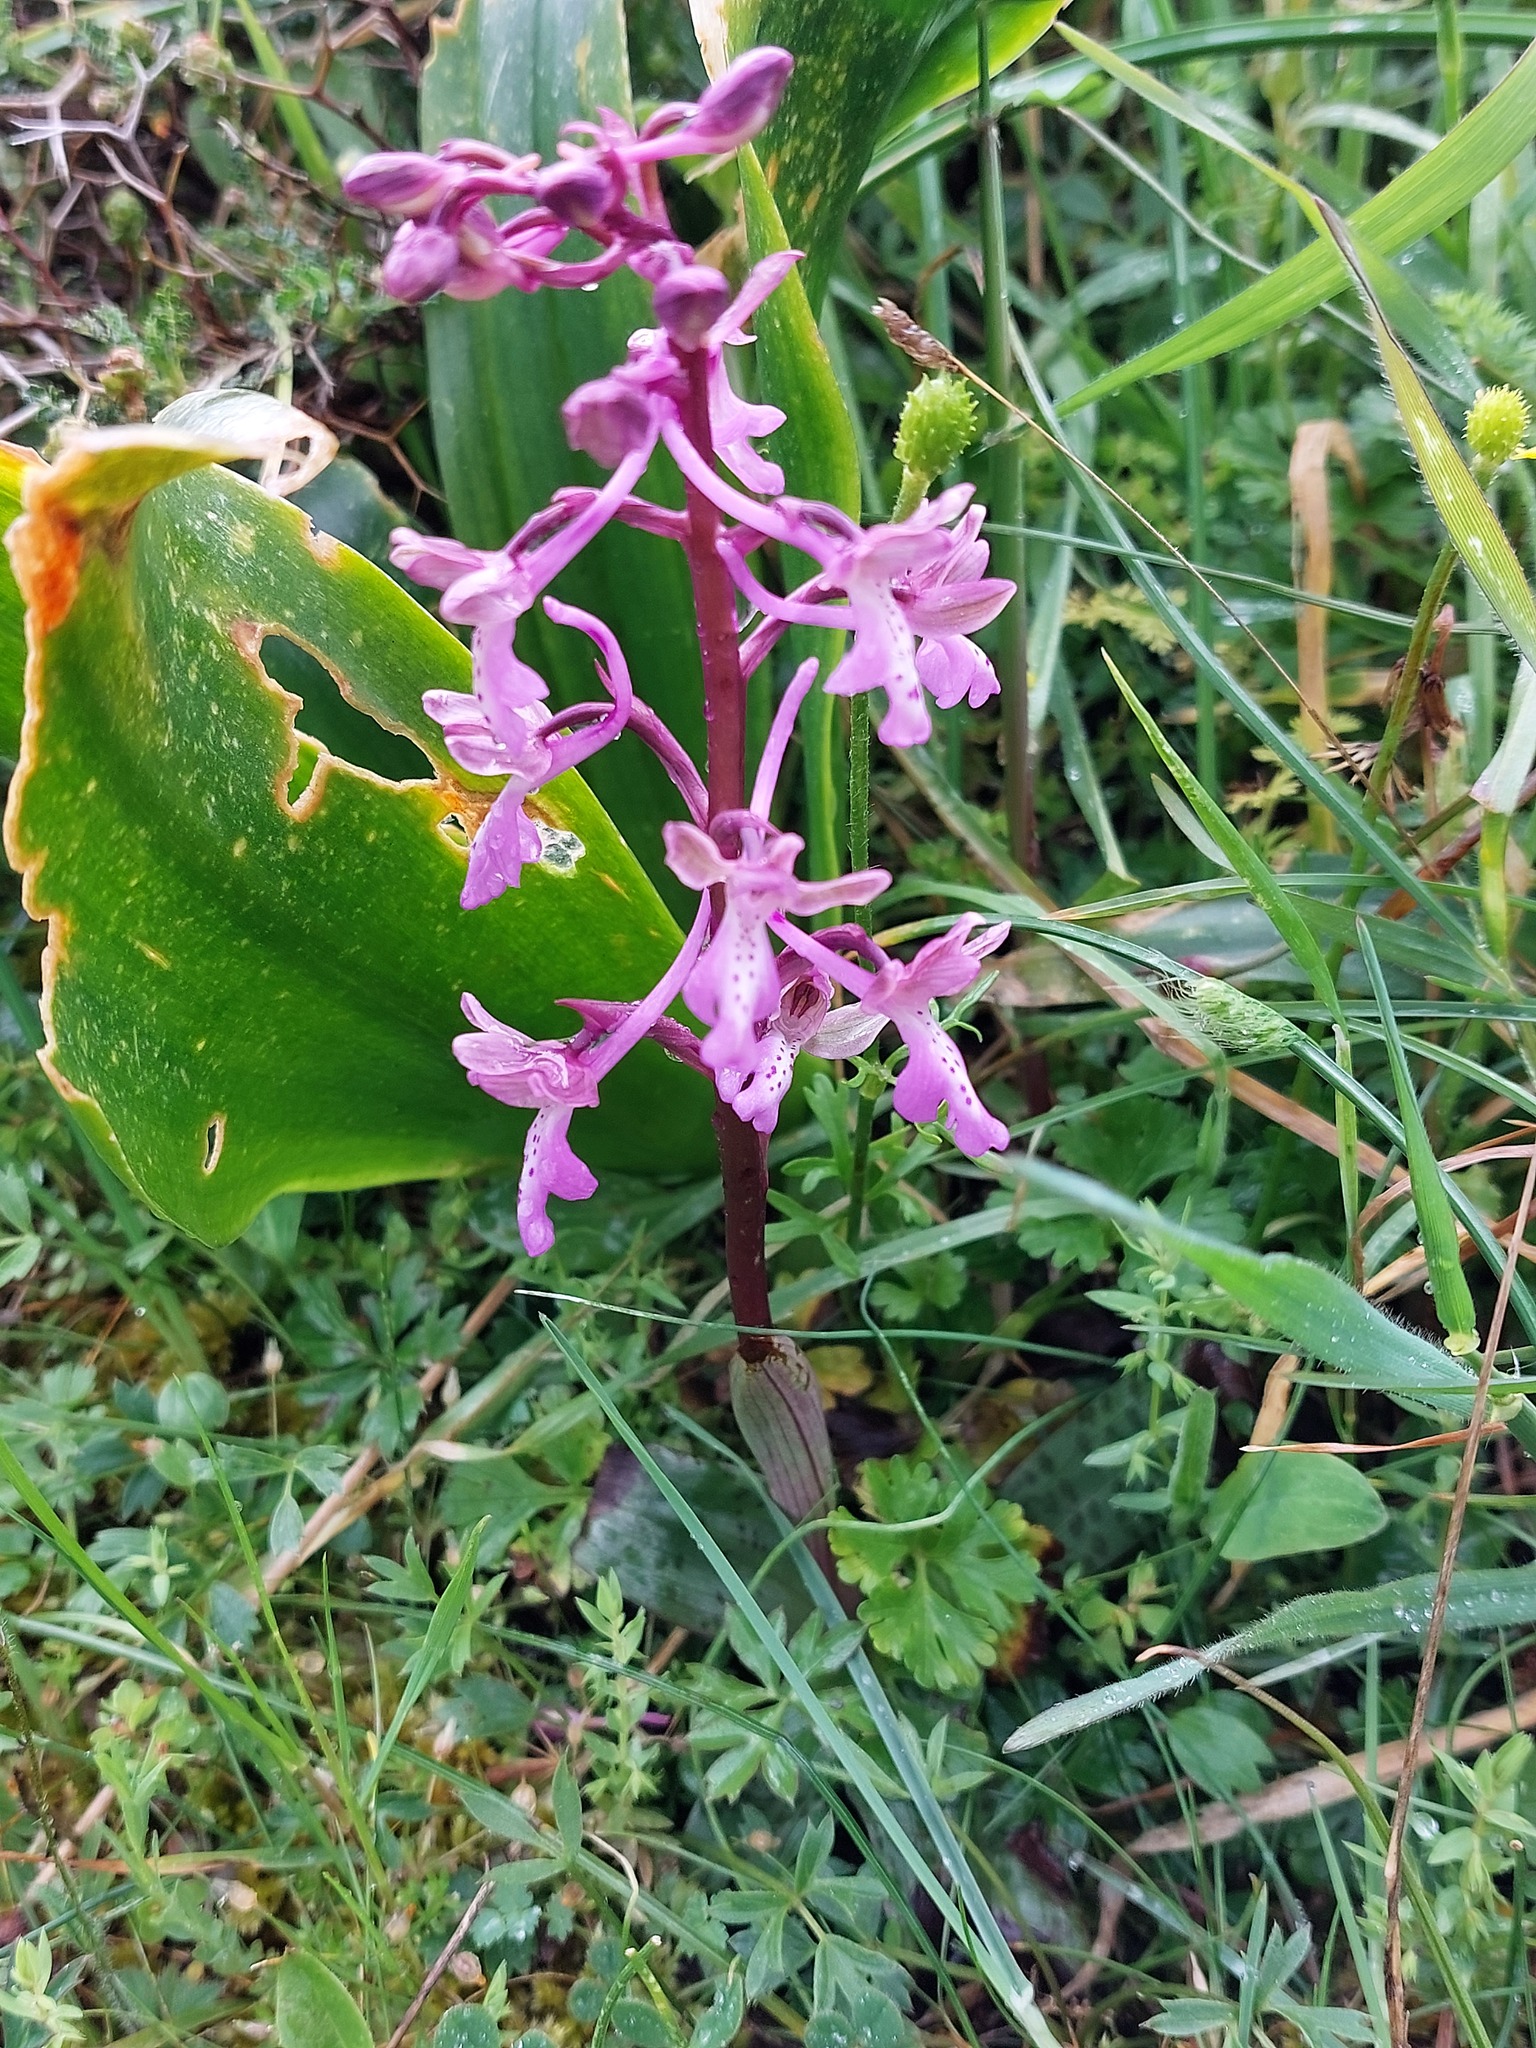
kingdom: Plantae
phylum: Tracheophyta
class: Liliopsida
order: Asparagales
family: Orchidaceae
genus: Orchis
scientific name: Orchis sitiaca
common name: Cretan orchid
